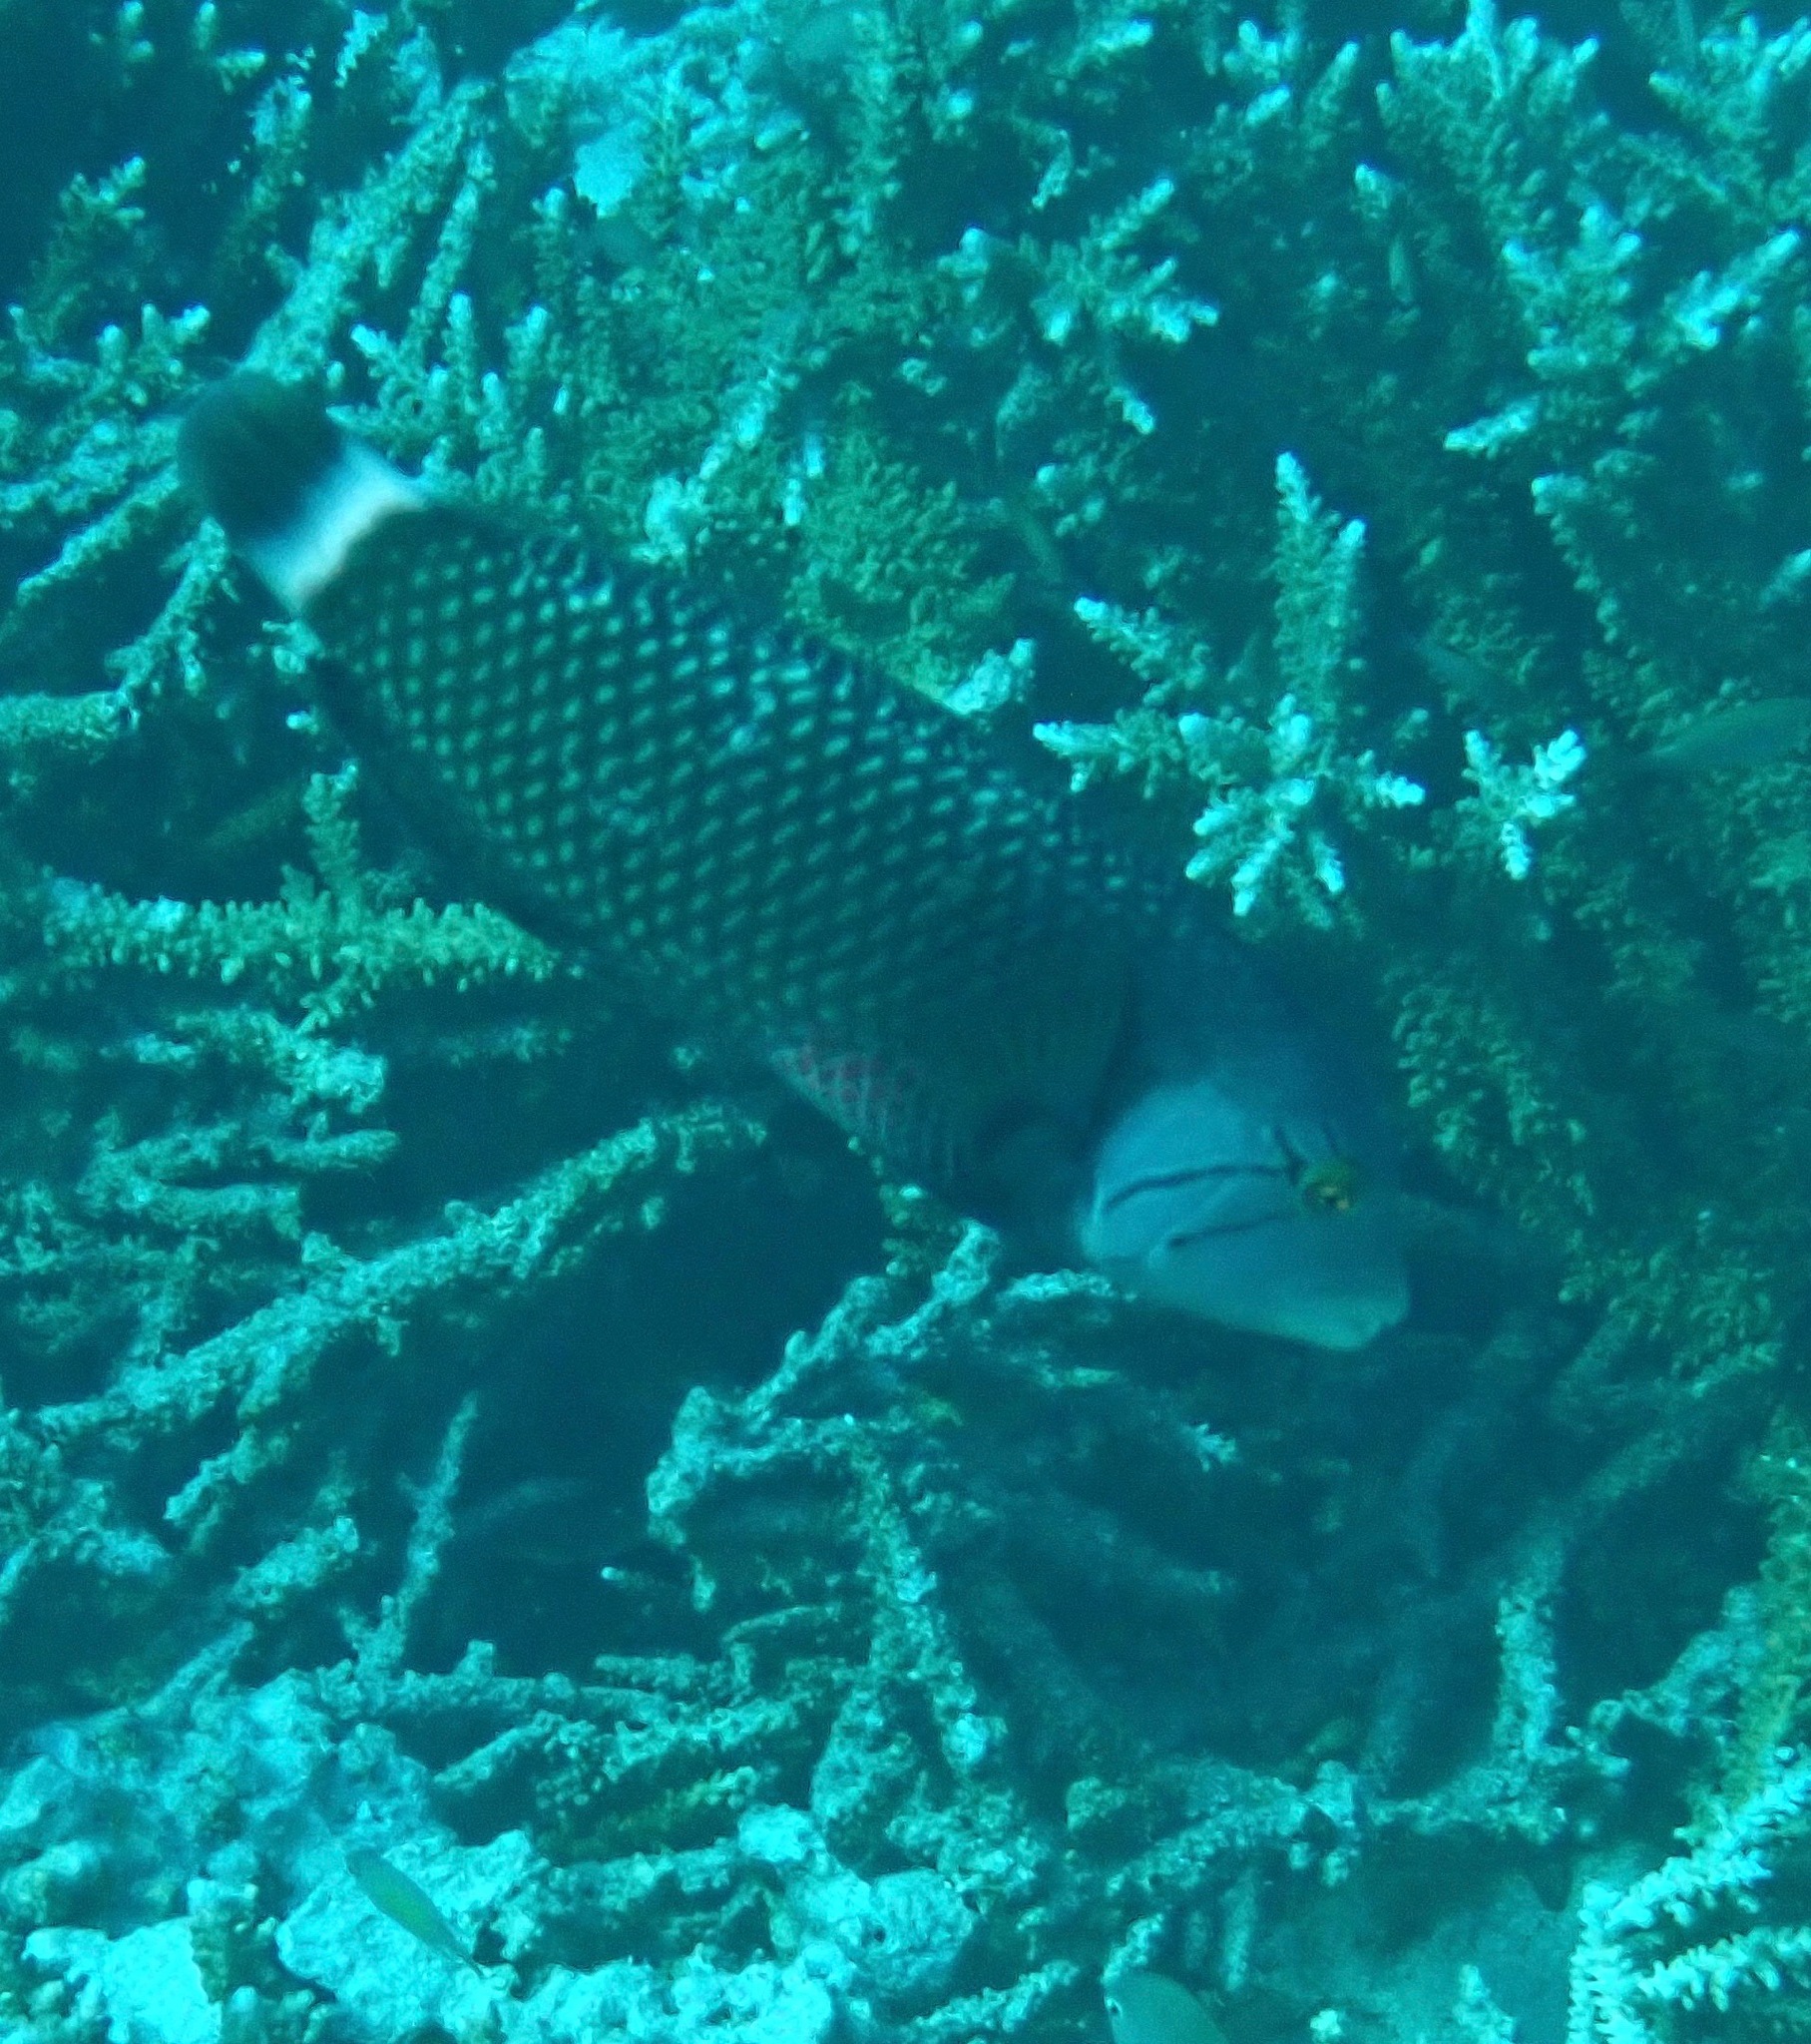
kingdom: Animalia
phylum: Chordata
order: Perciformes
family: Labridae
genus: Novaculichthys
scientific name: Novaculichthys taeniourus
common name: Rockmover wrasse
